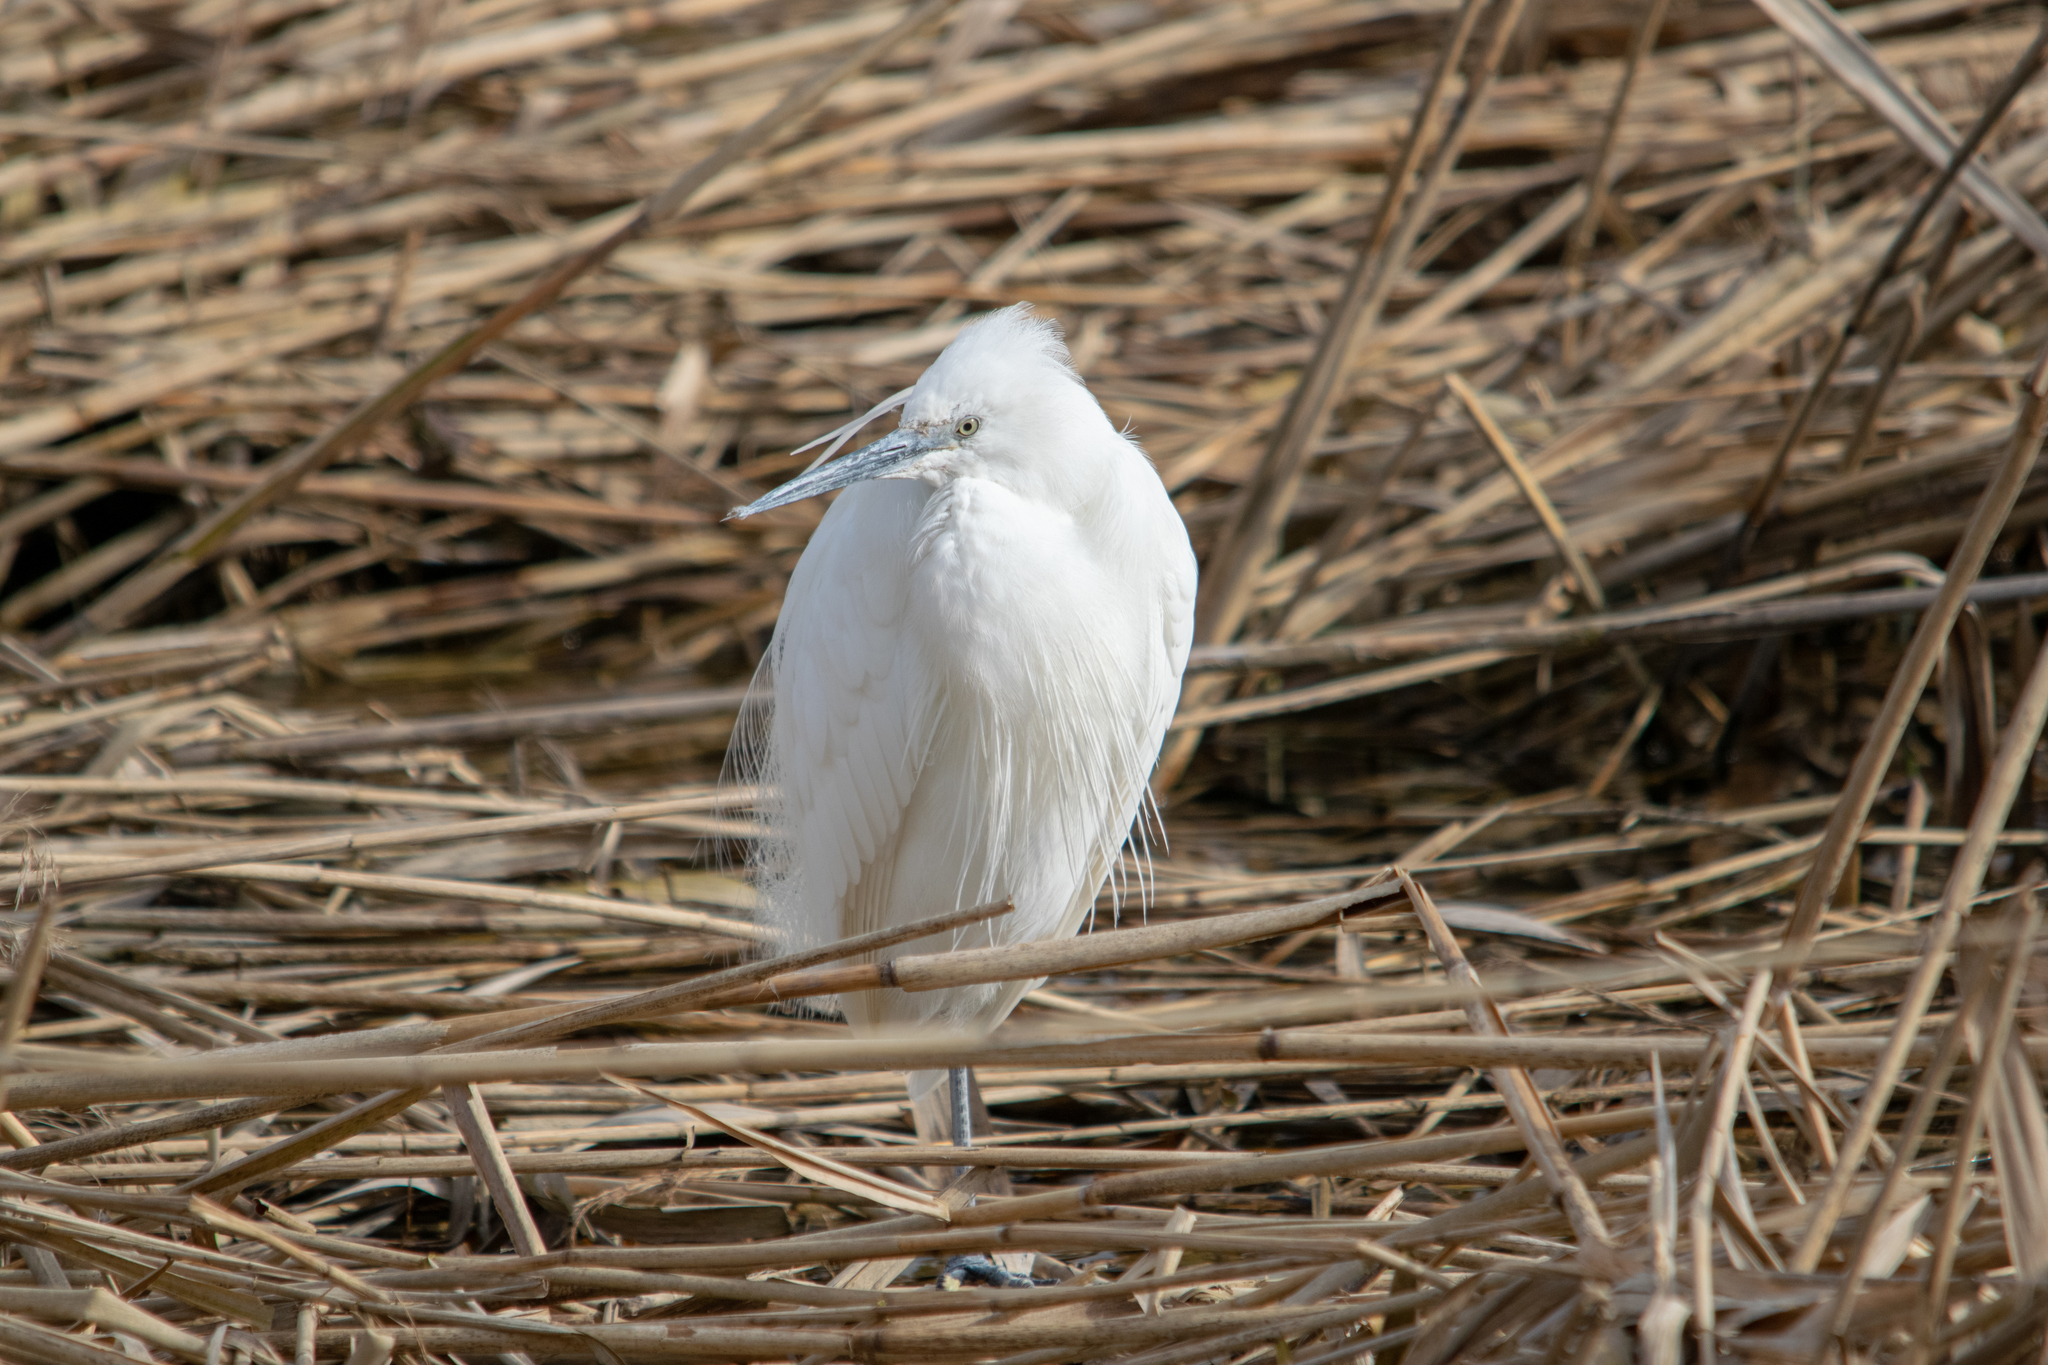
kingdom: Animalia
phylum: Chordata
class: Aves
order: Pelecaniformes
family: Ardeidae
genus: Egretta
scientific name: Egretta garzetta
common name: Little egret
